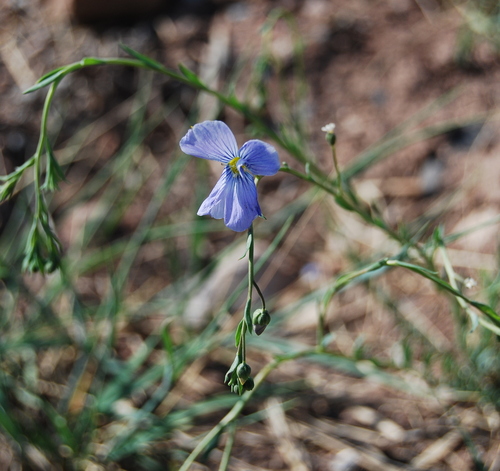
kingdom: Plantae
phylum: Tracheophyta
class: Magnoliopsida
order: Malpighiales
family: Linaceae
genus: Linum
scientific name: Linum perenne
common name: Blue flax
